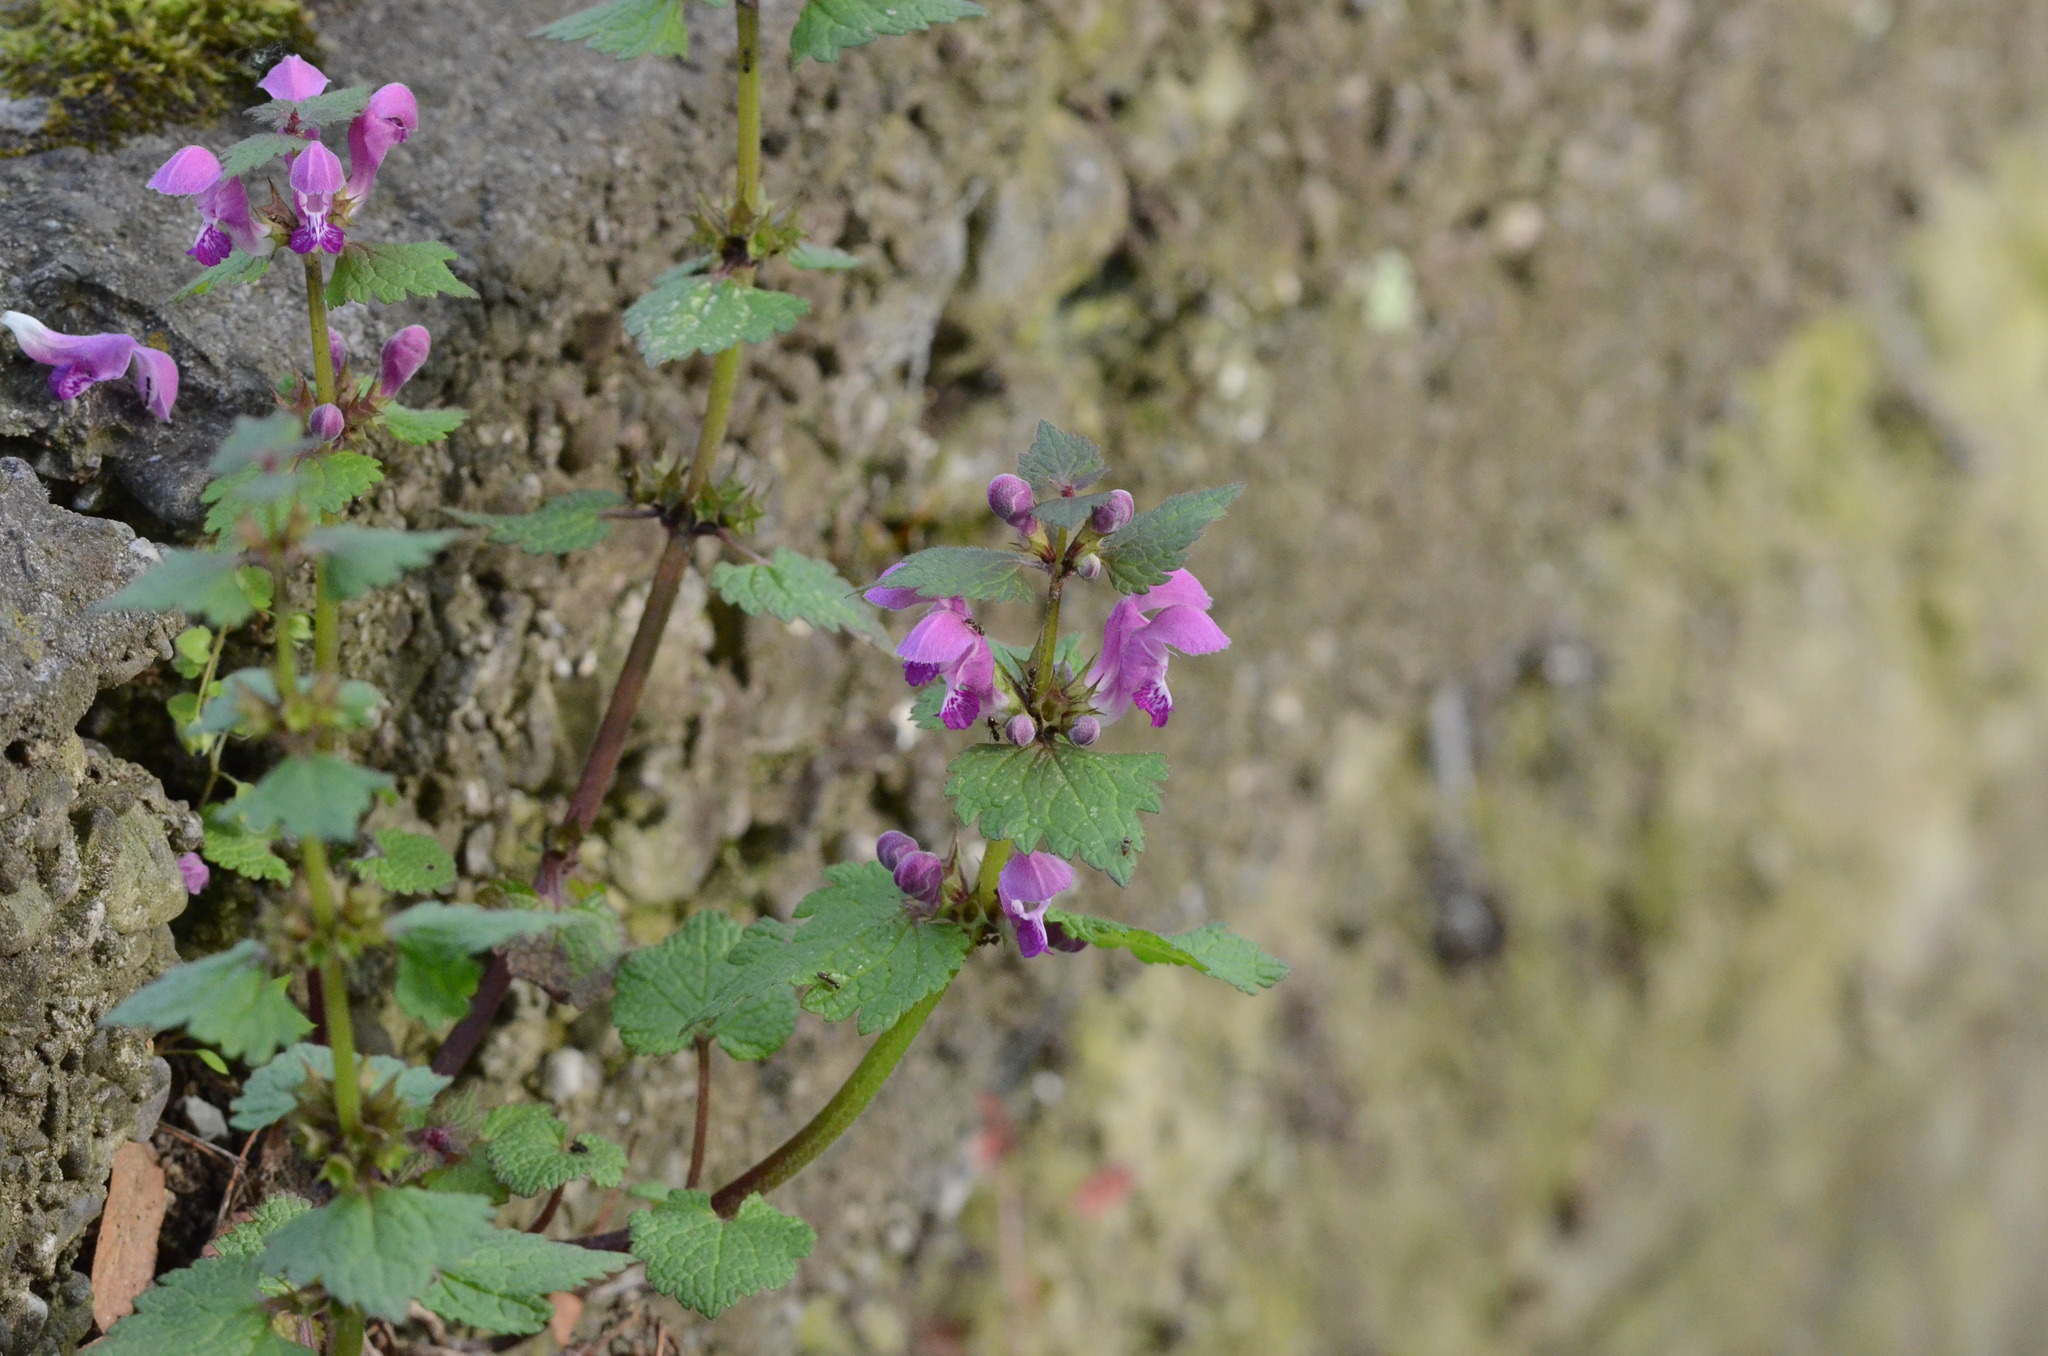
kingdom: Plantae
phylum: Tracheophyta
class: Magnoliopsida
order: Lamiales
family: Lamiaceae
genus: Lamium
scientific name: Lamium maculatum
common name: Spotted dead-nettle
